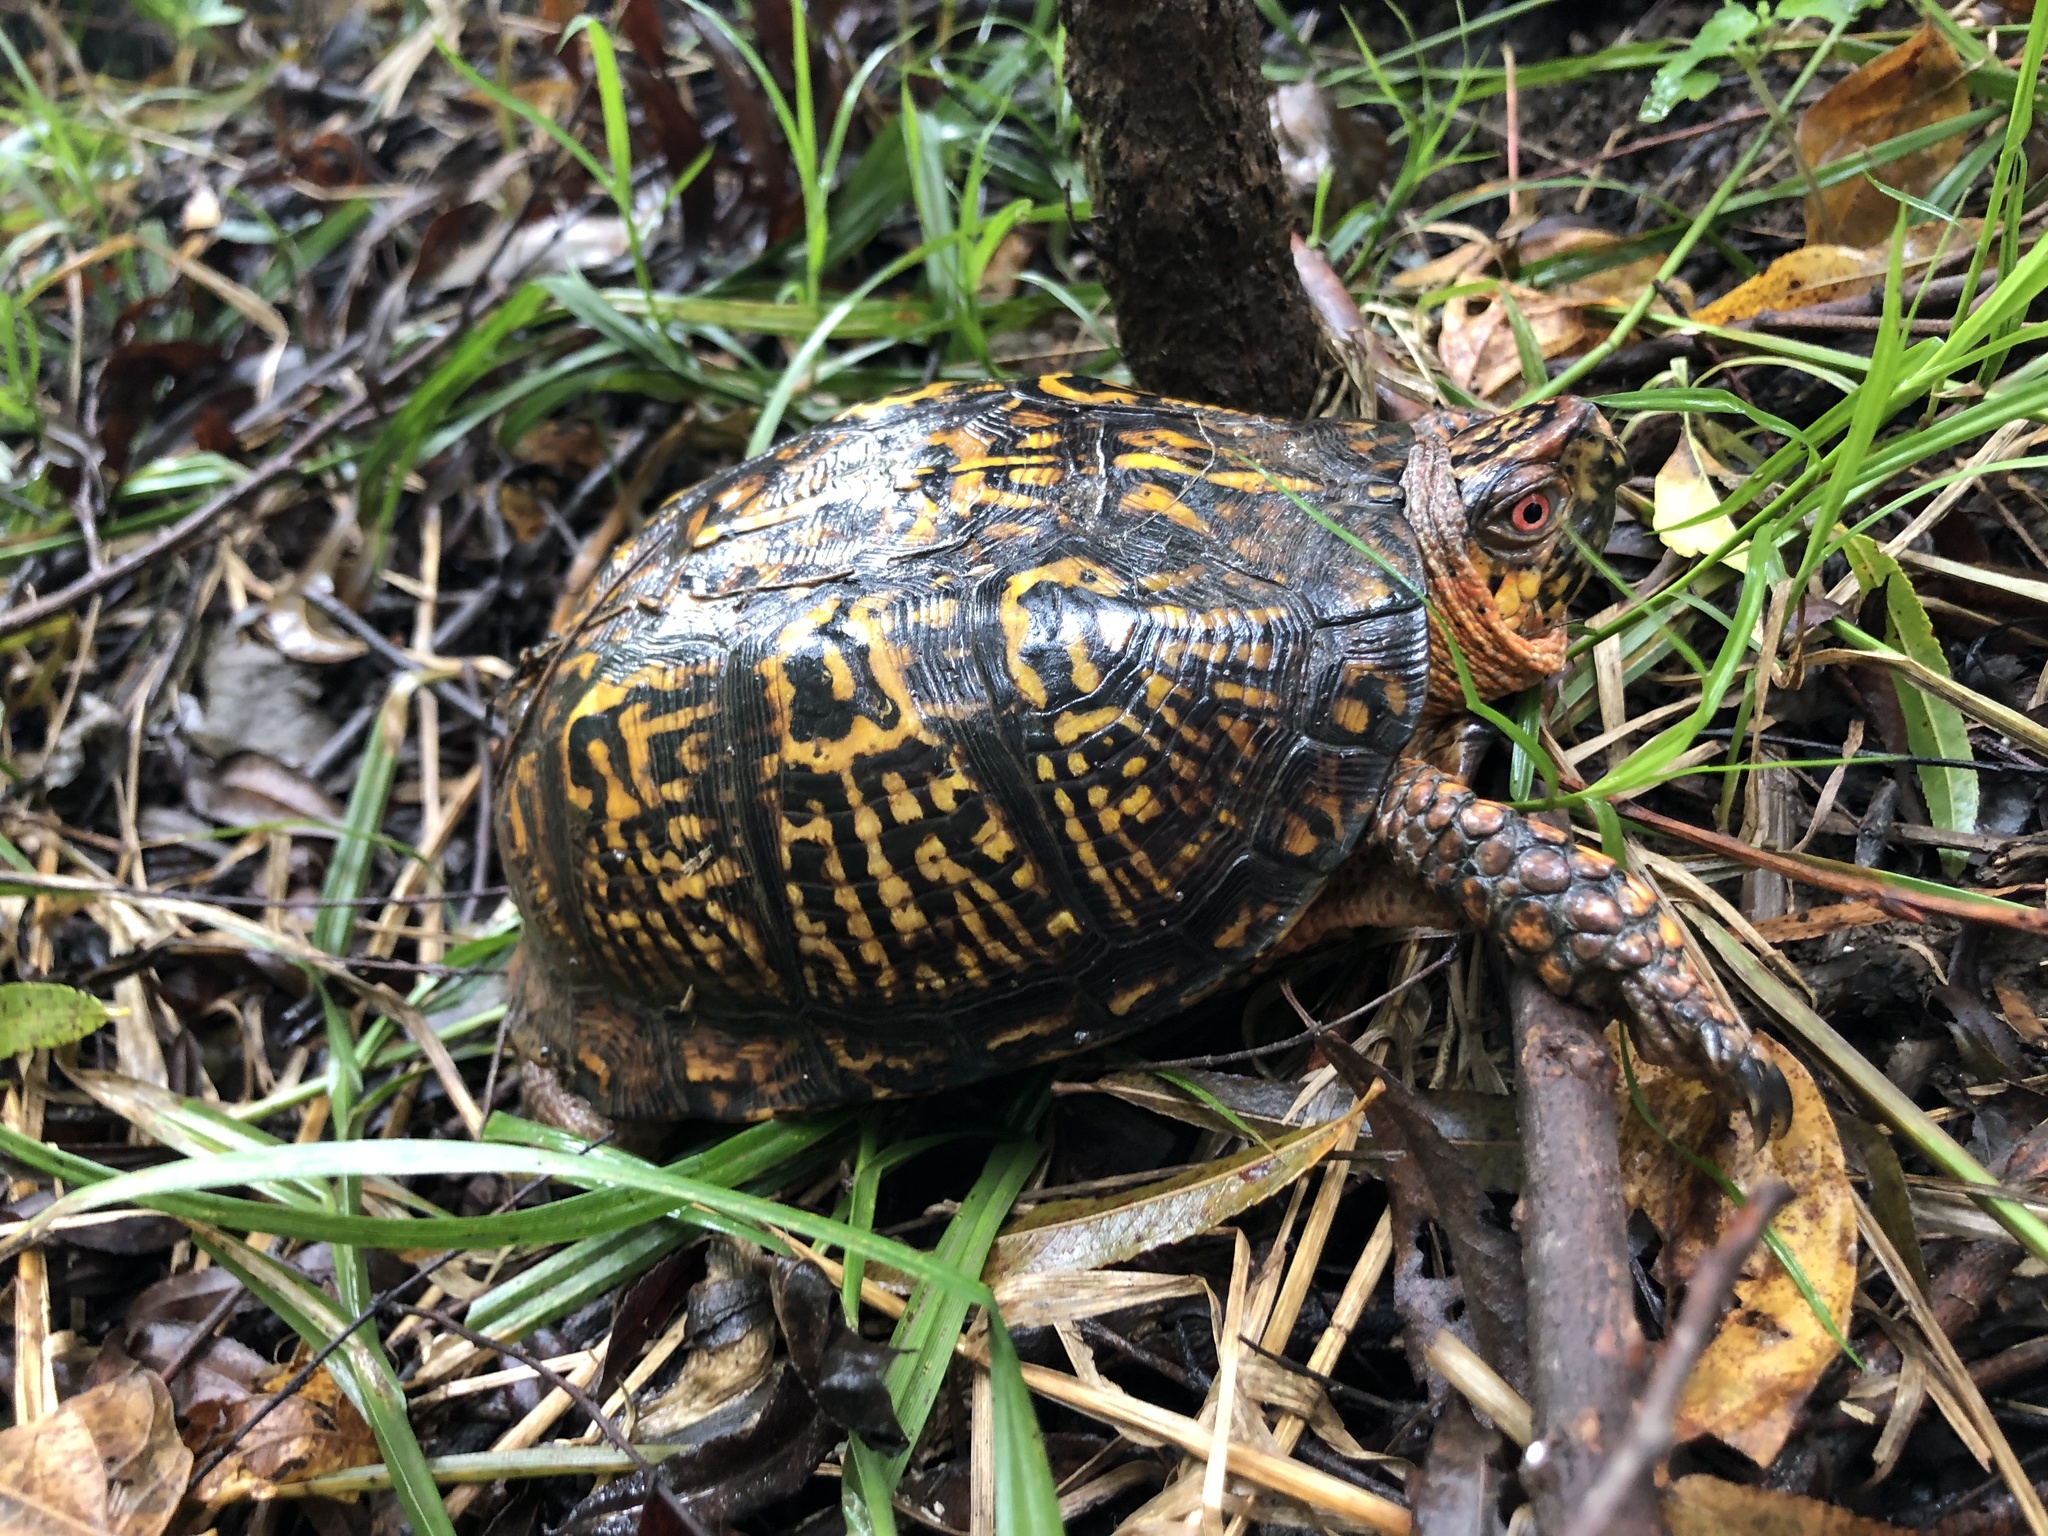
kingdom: Animalia
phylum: Chordata
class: Testudines
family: Emydidae
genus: Terrapene
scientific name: Terrapene carolina
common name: Common box turtle
